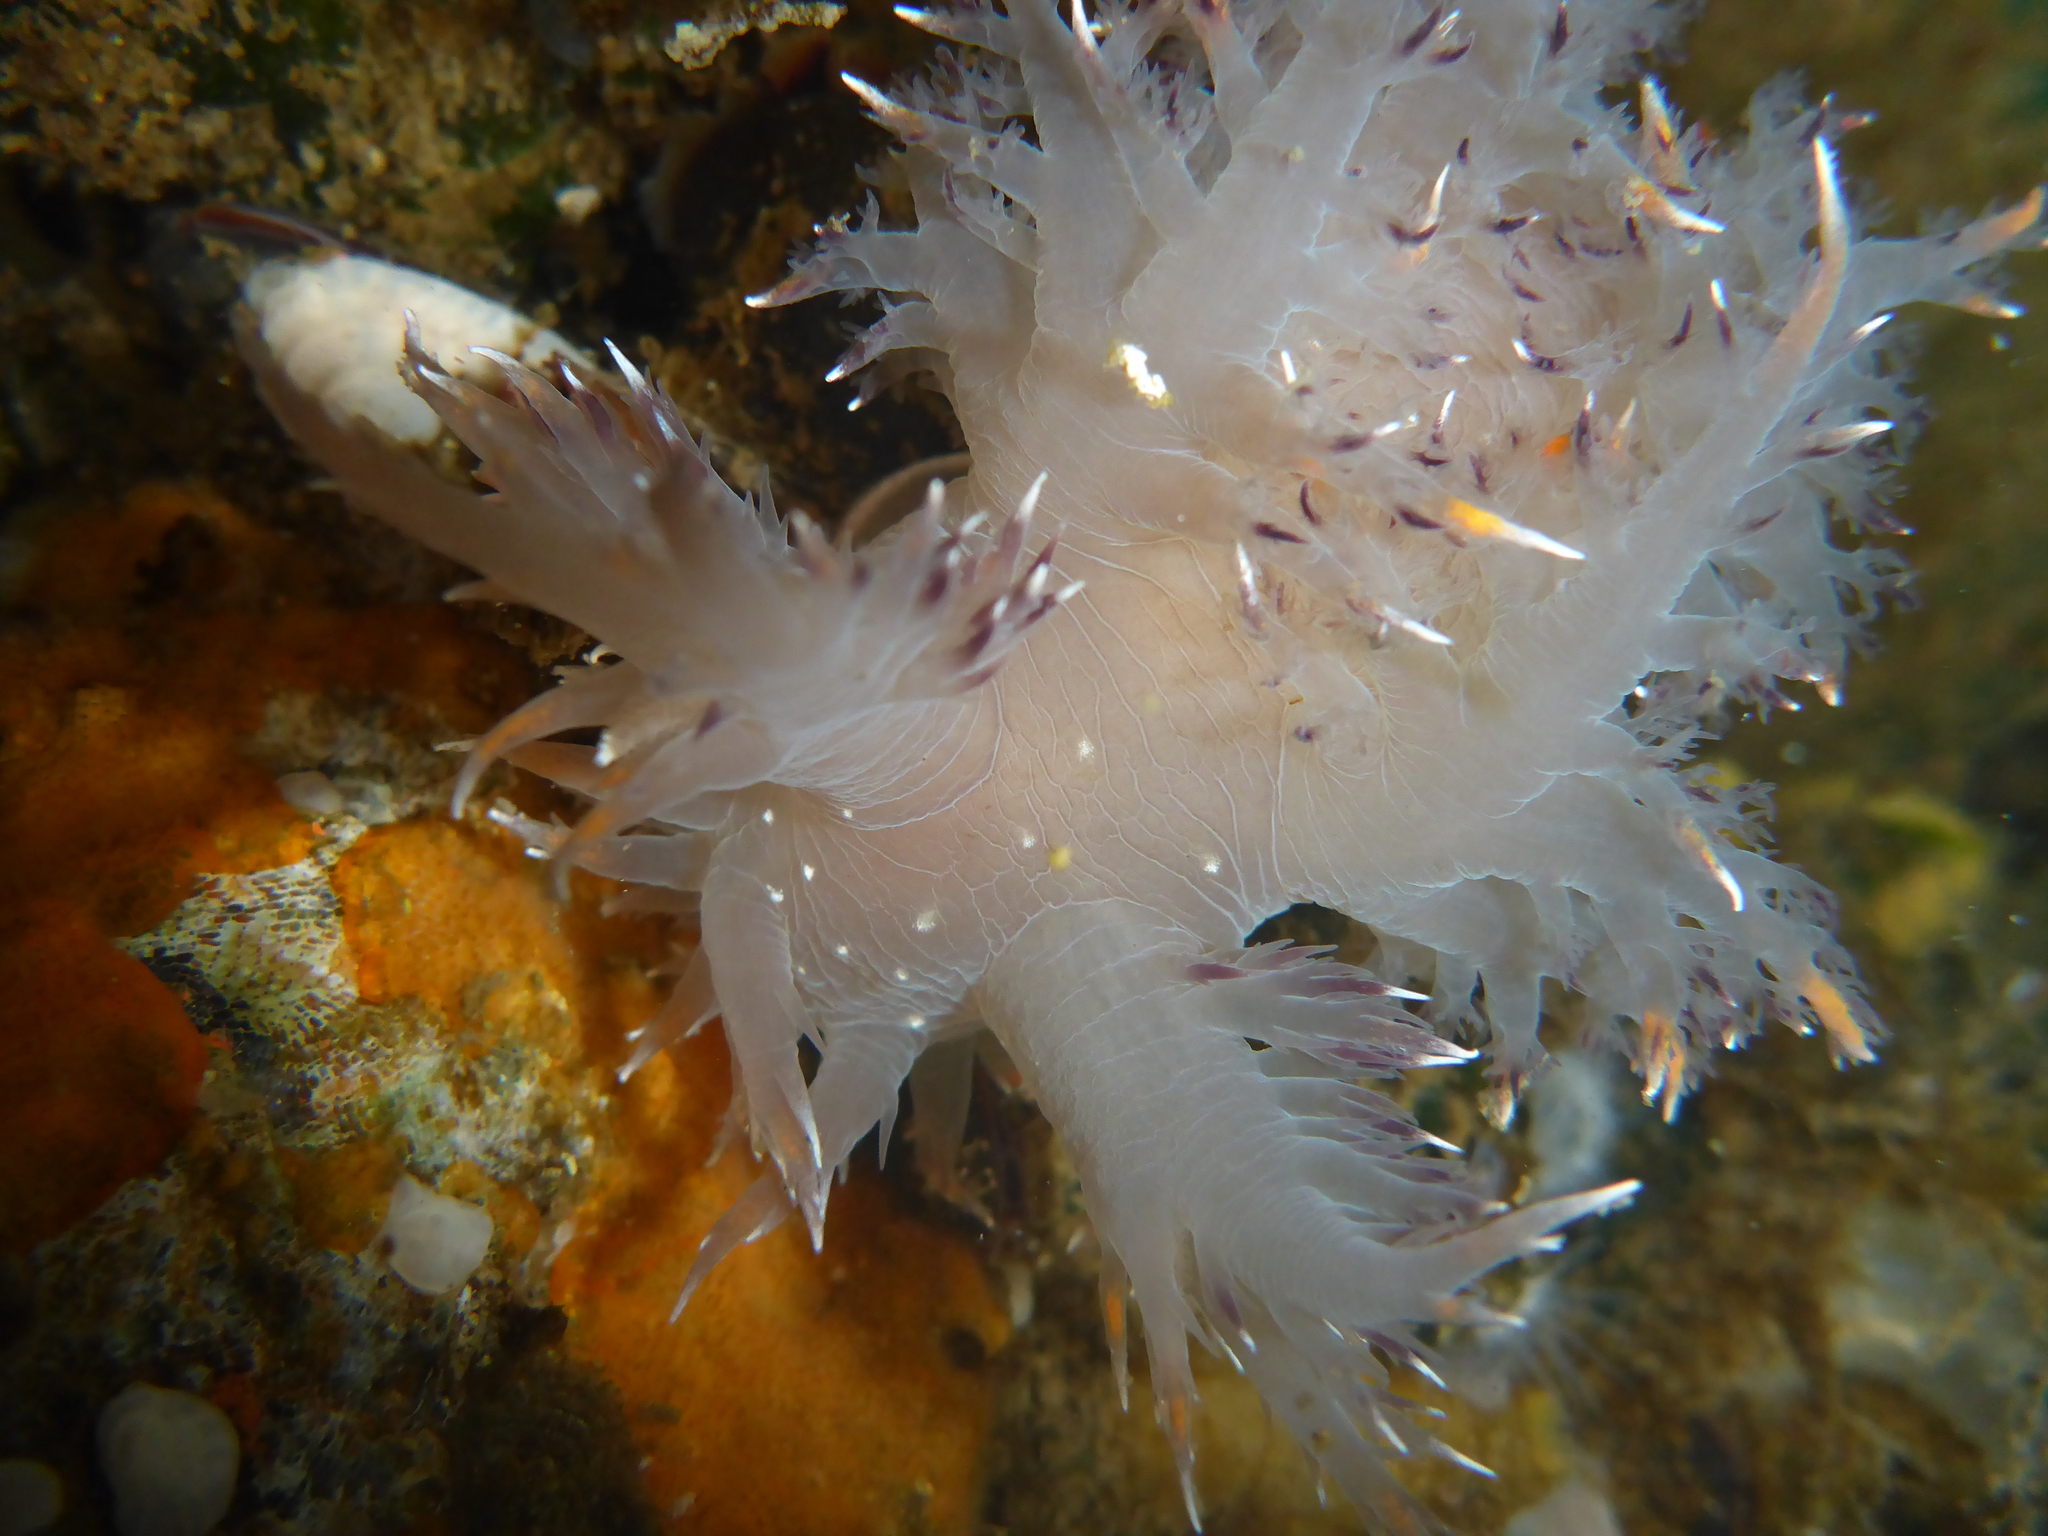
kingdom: Animalia
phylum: Mollusca
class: Gastropoda
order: Nudibranchia
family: Dendronotidae
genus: Dendronotus
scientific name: Dendronotus iris
